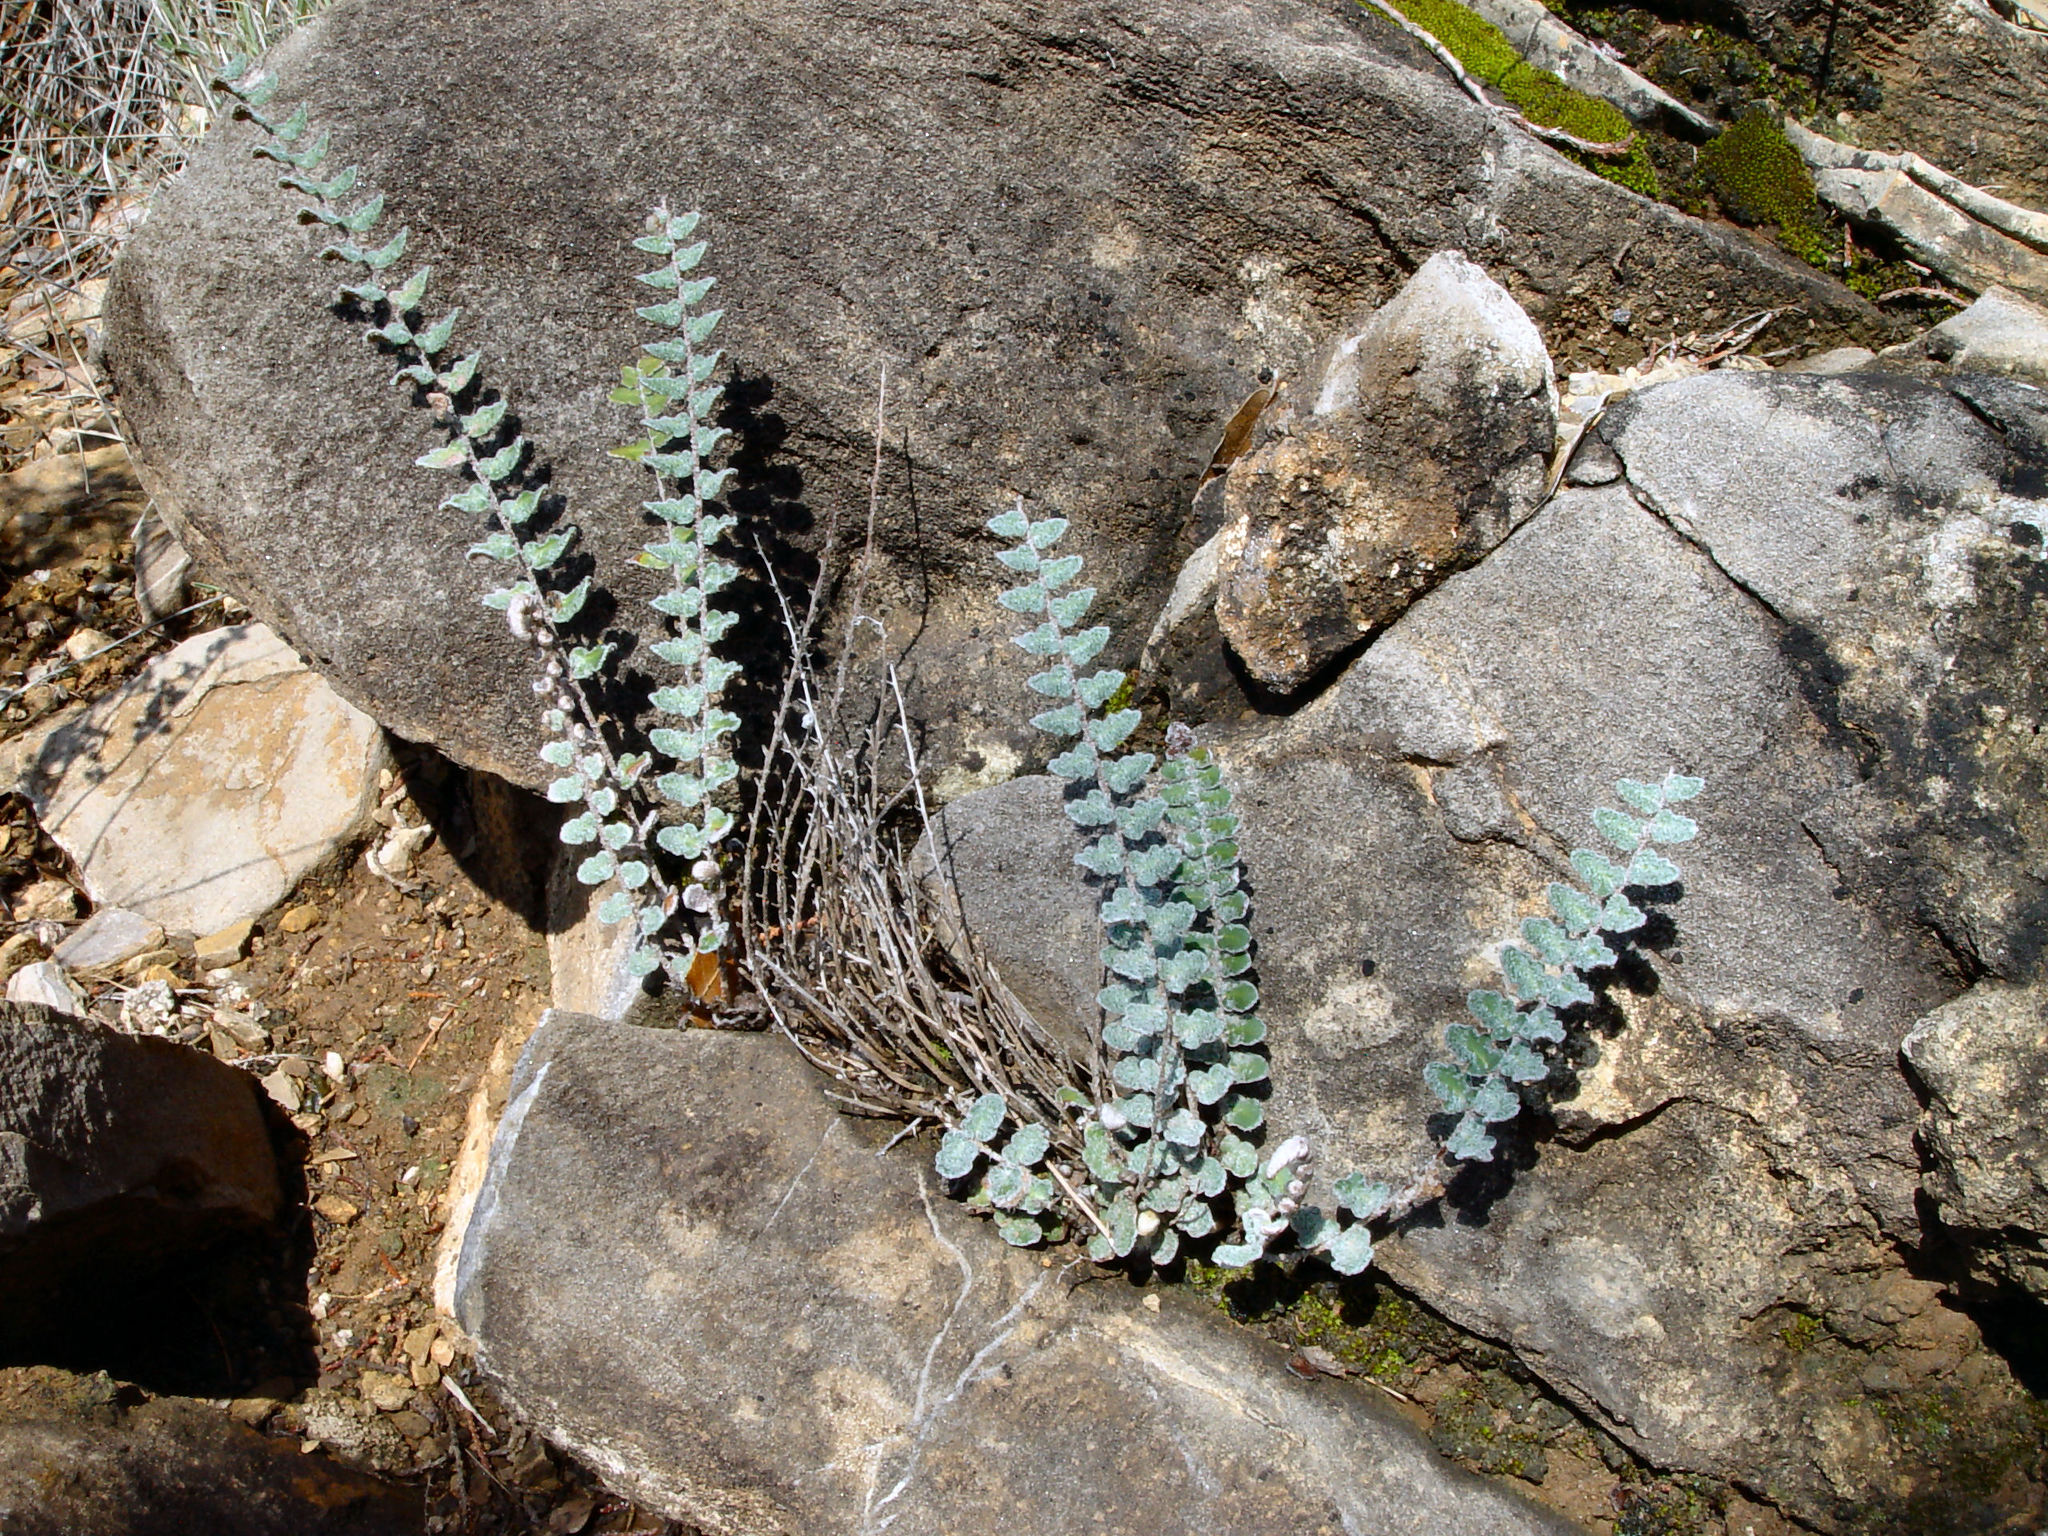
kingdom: Plantae
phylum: Tracheophyta
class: Polypodiopsida
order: Polypodiales
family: Pteridaceae
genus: Astrolepis
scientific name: Astrolepis windhamii
